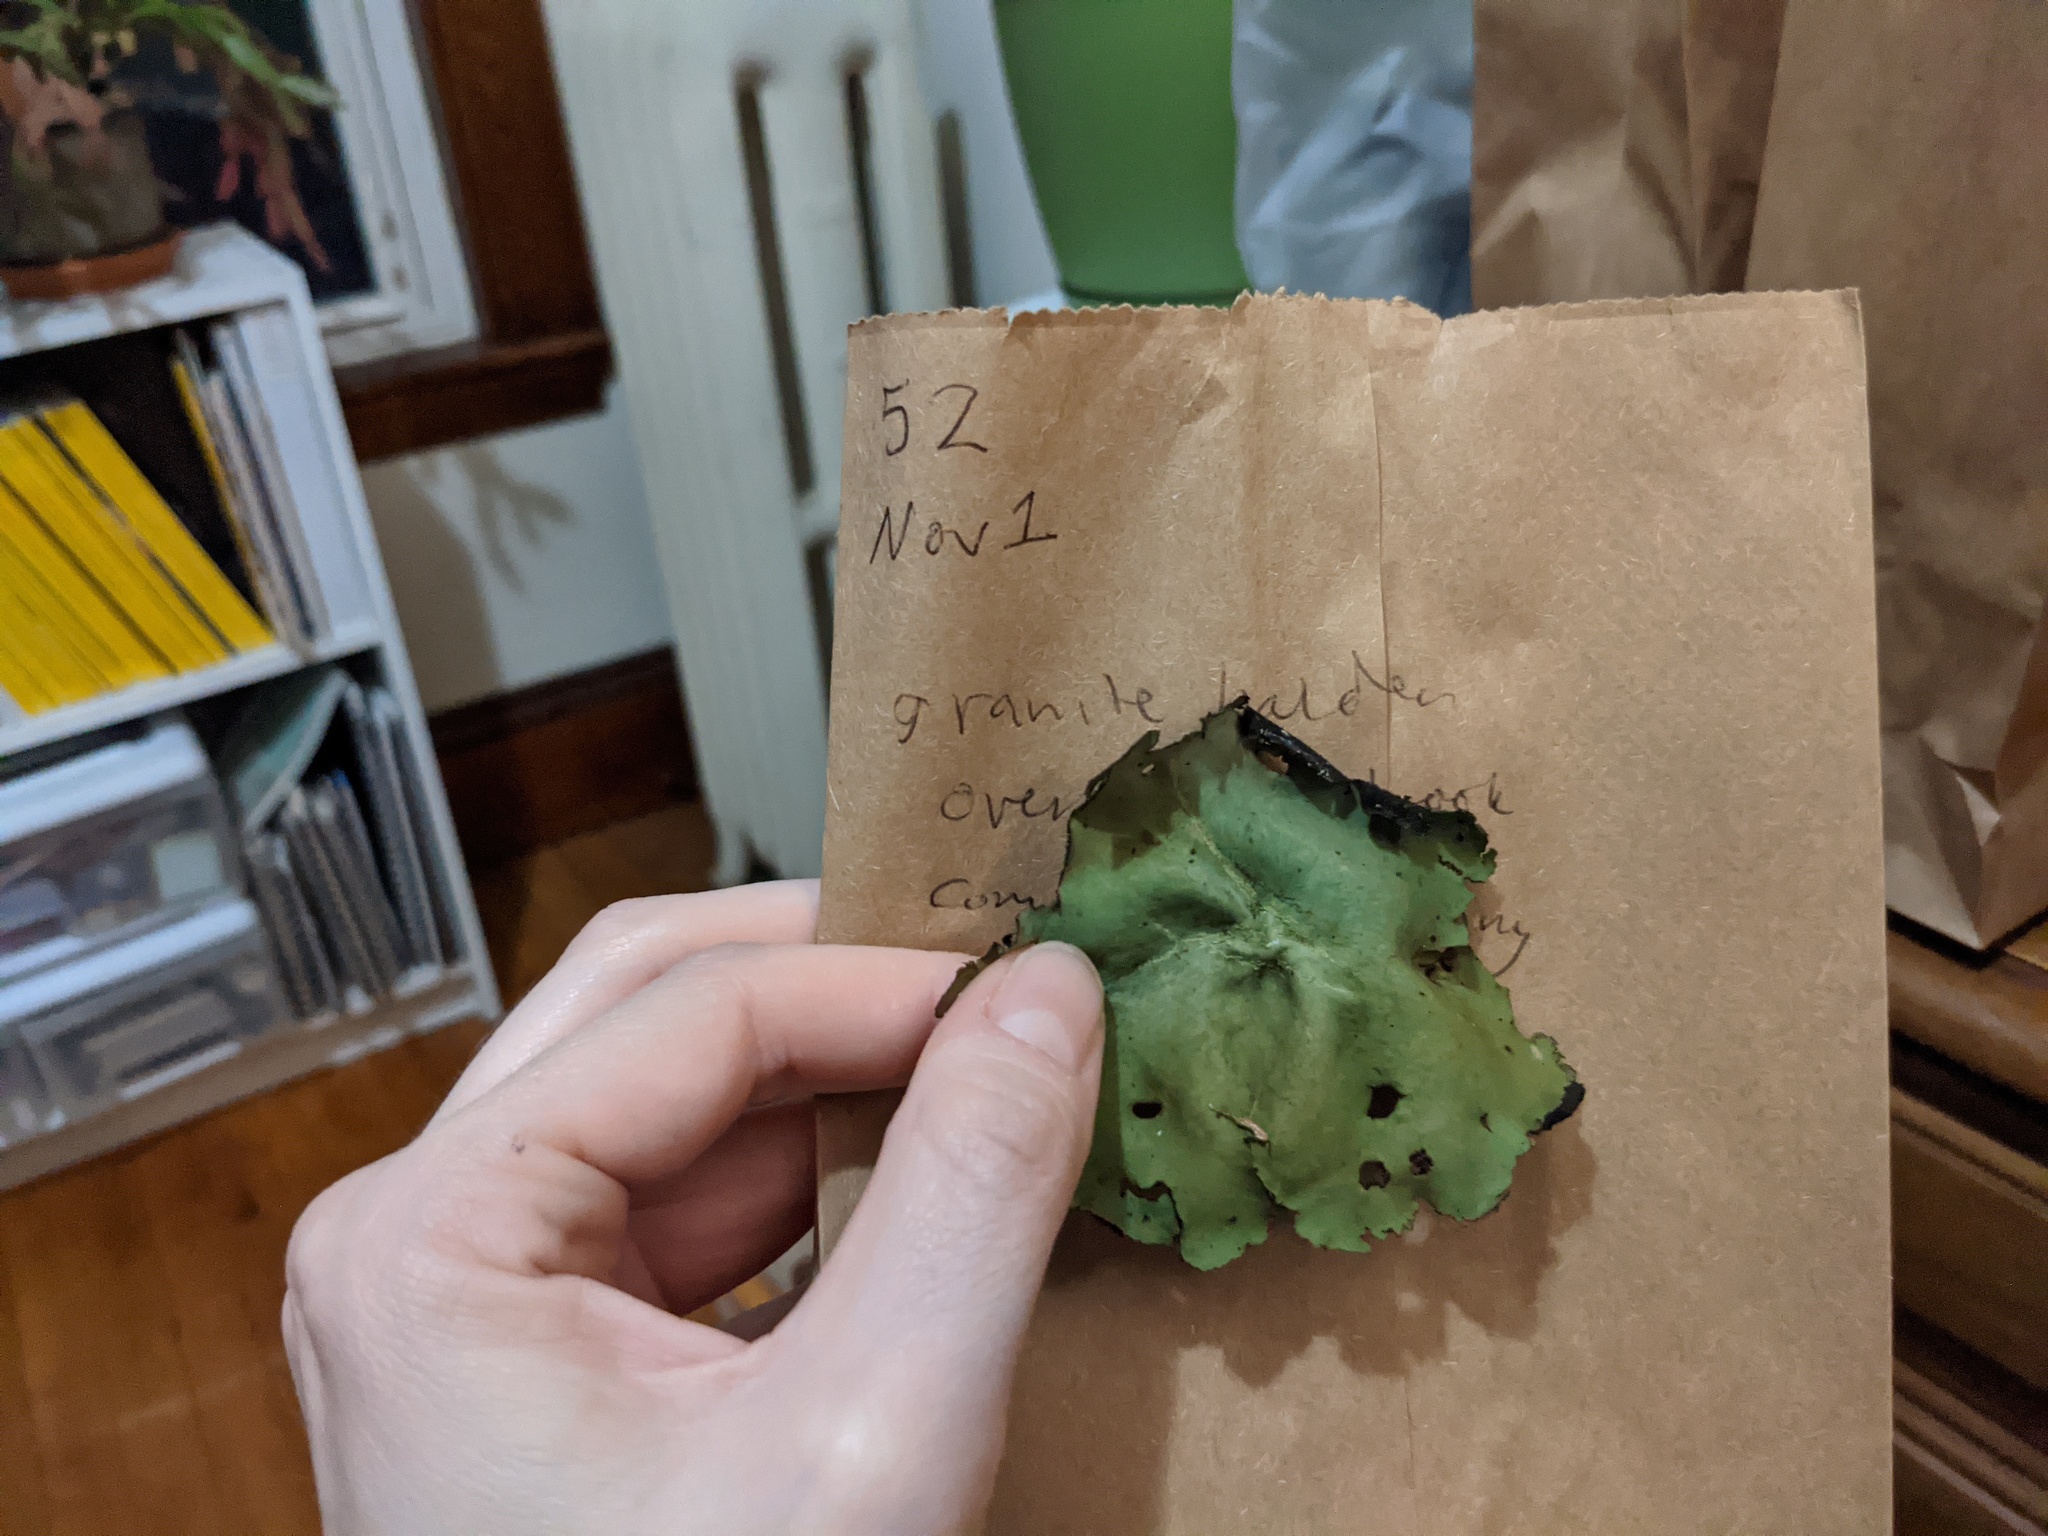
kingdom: Fungi
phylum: Ascomycota
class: Lecanoromycetes
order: Umbilicariales
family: Umbilicariaceae
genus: Umbilicaria
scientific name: Umbilicaria mammulata
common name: Smooth rock tripe
